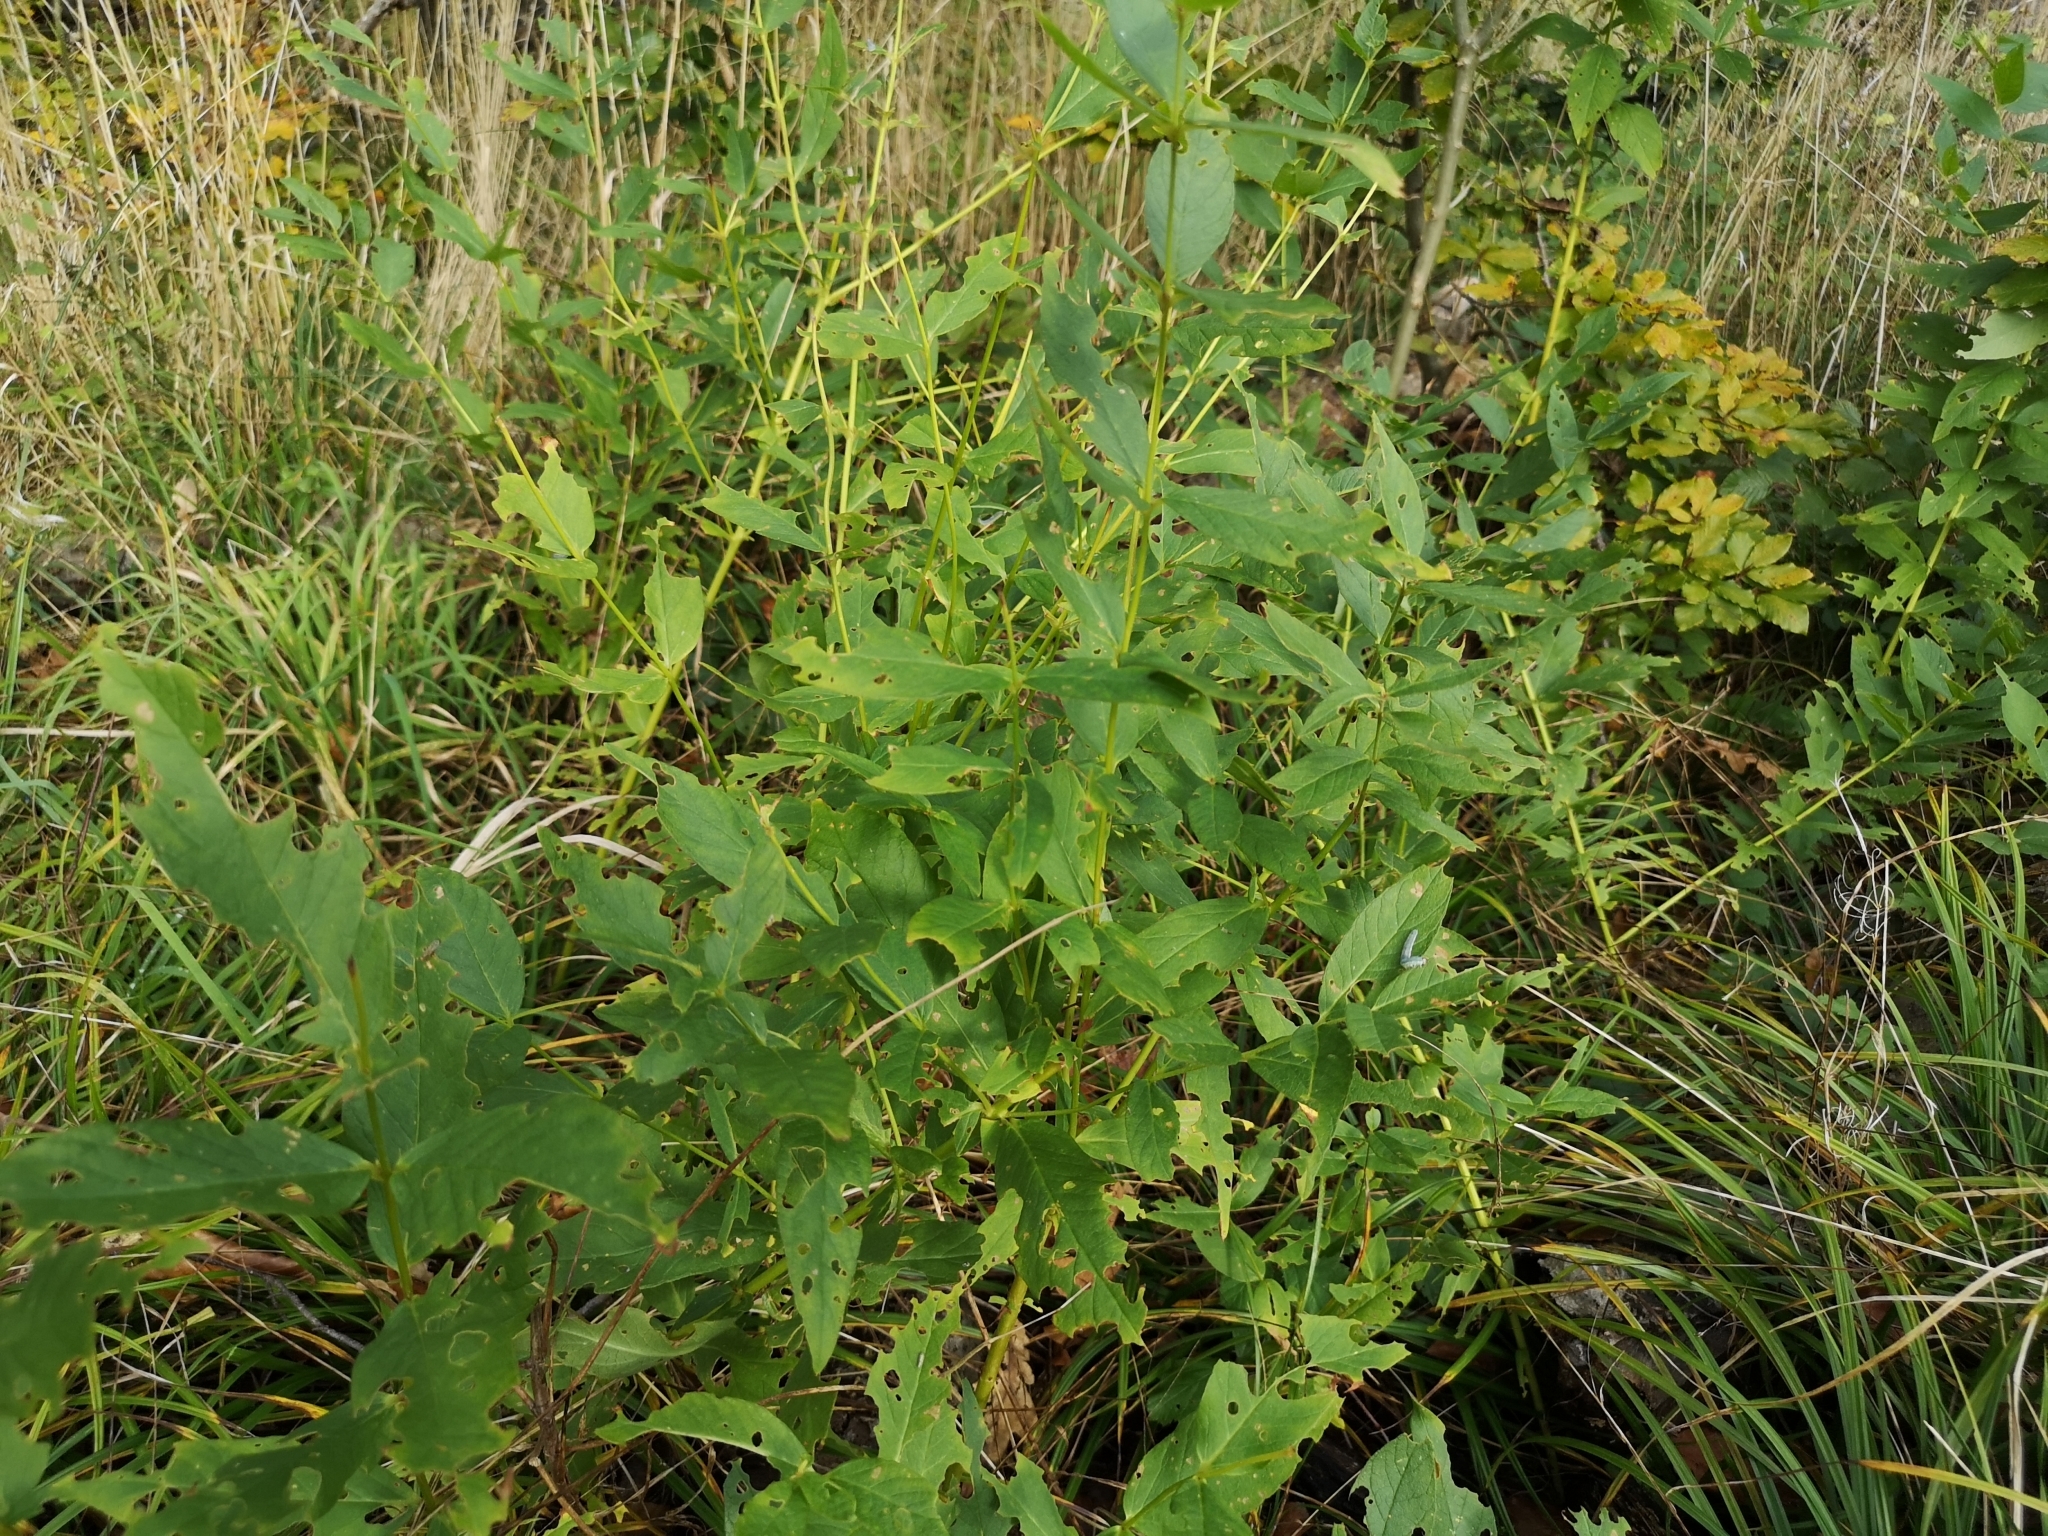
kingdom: Plantae
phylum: Tracheophyta
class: Magnoliopsida
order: Ericales
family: Primulaceae
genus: Lysimachia
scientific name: Lysimachia vulgaris
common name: Yellow loosestrife
